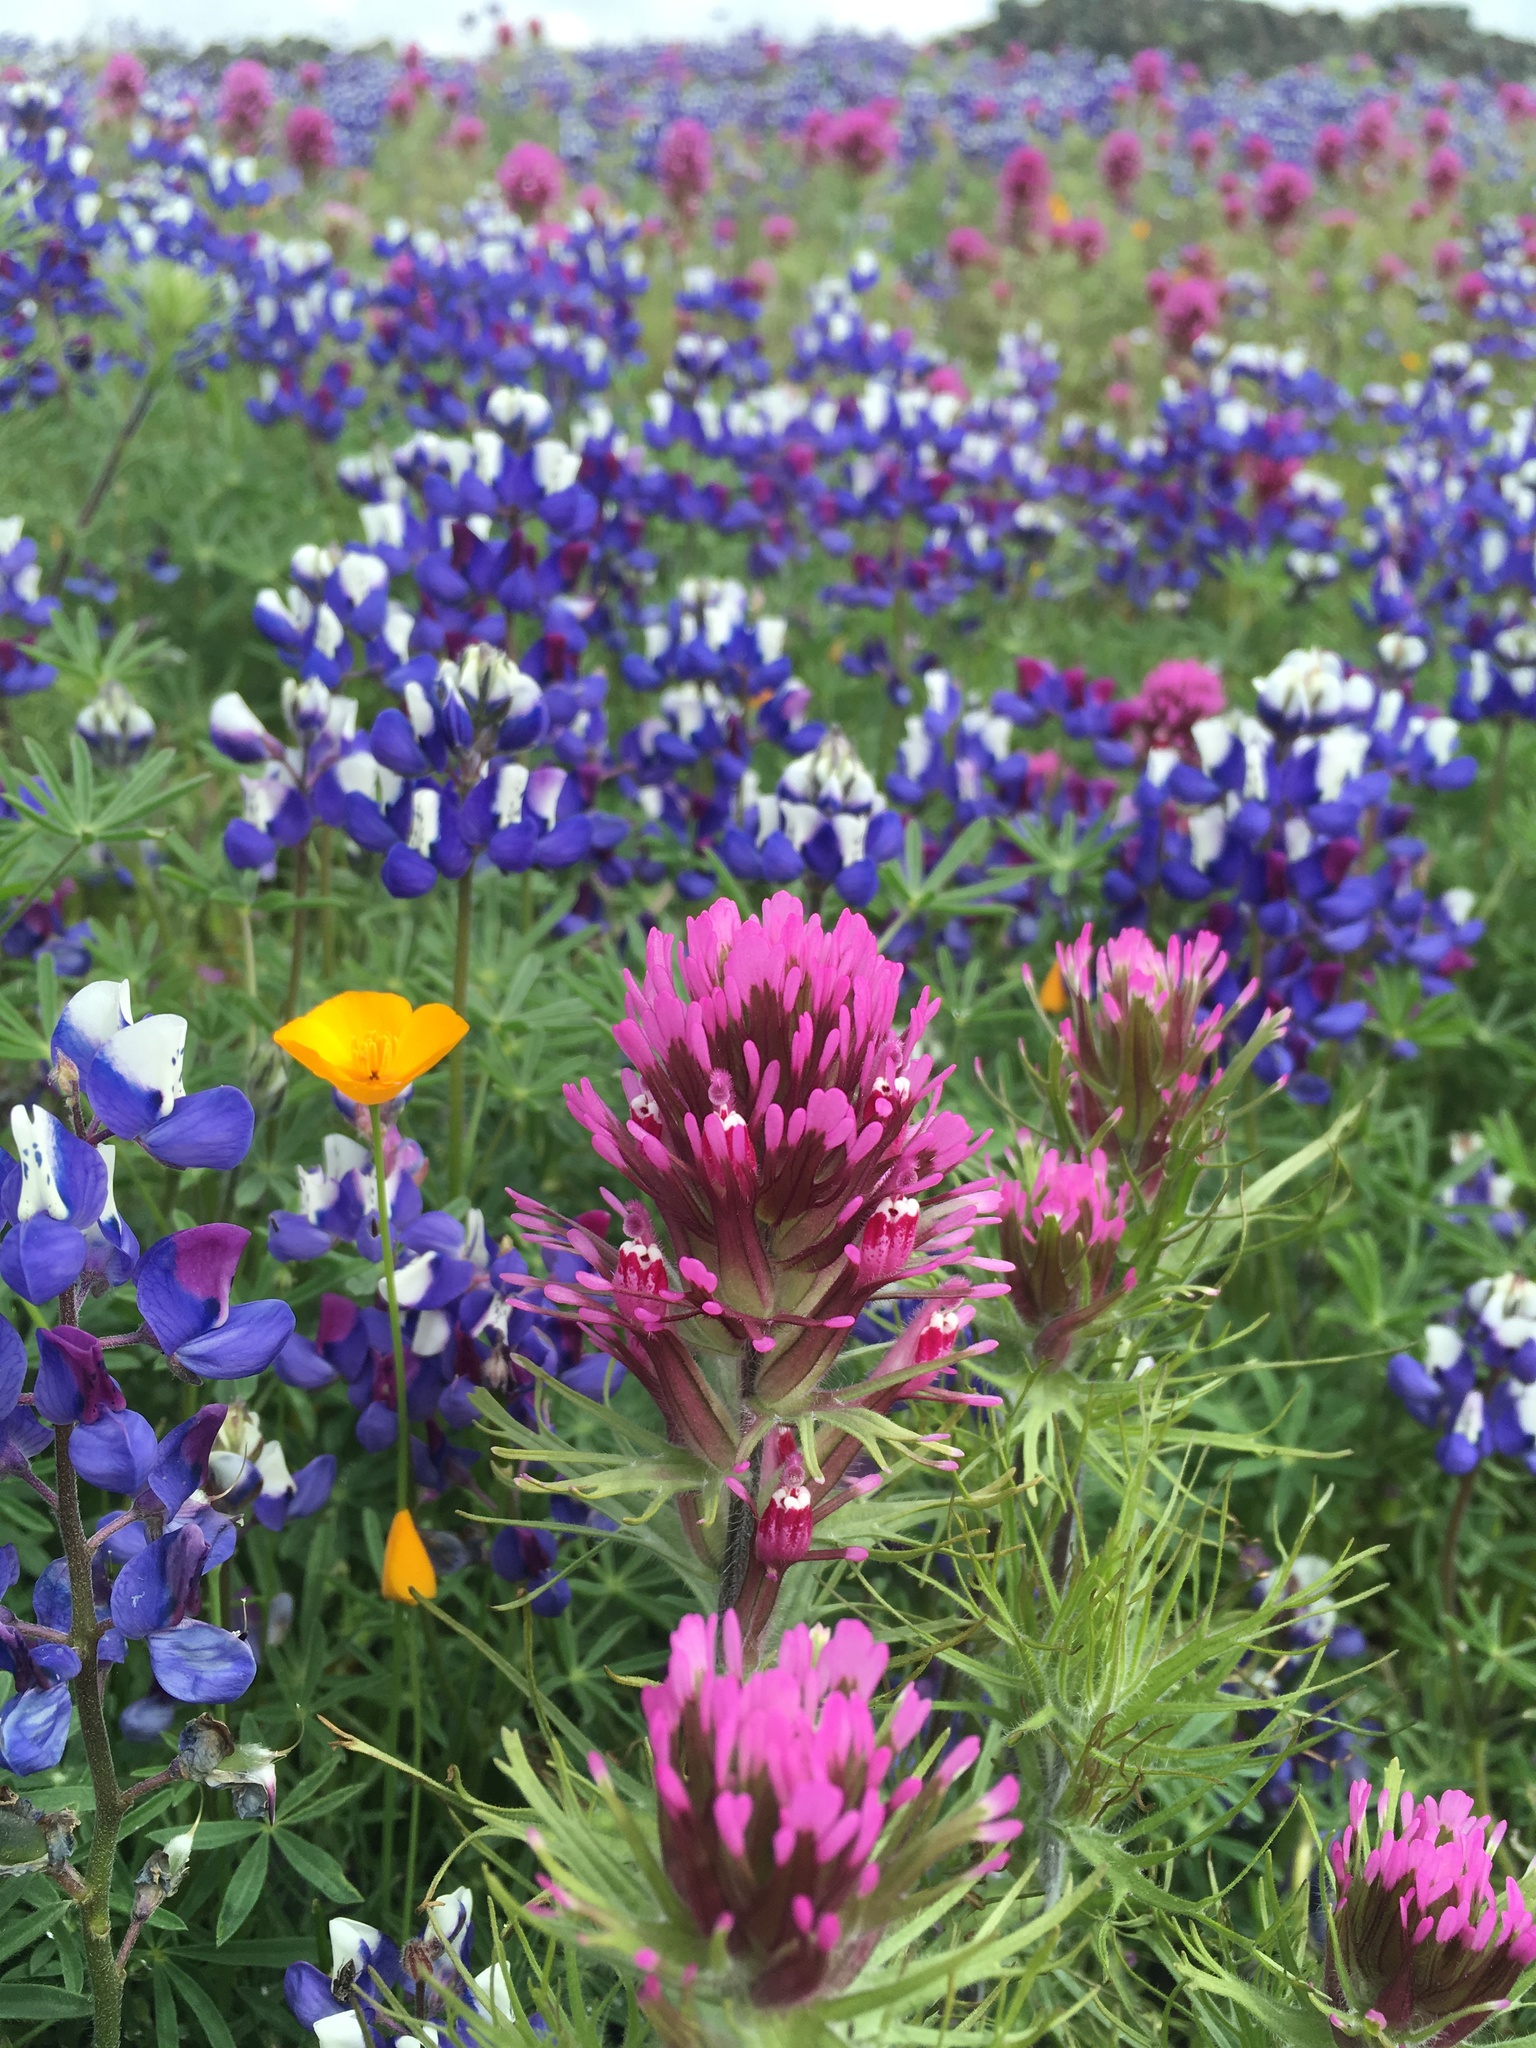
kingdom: Plantae
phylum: Tracheophyta
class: Magnoliopsida
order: Lamiales
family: Orobanchaceae
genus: Castilleja
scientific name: Castilleja exserta
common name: Purple owl-clover
